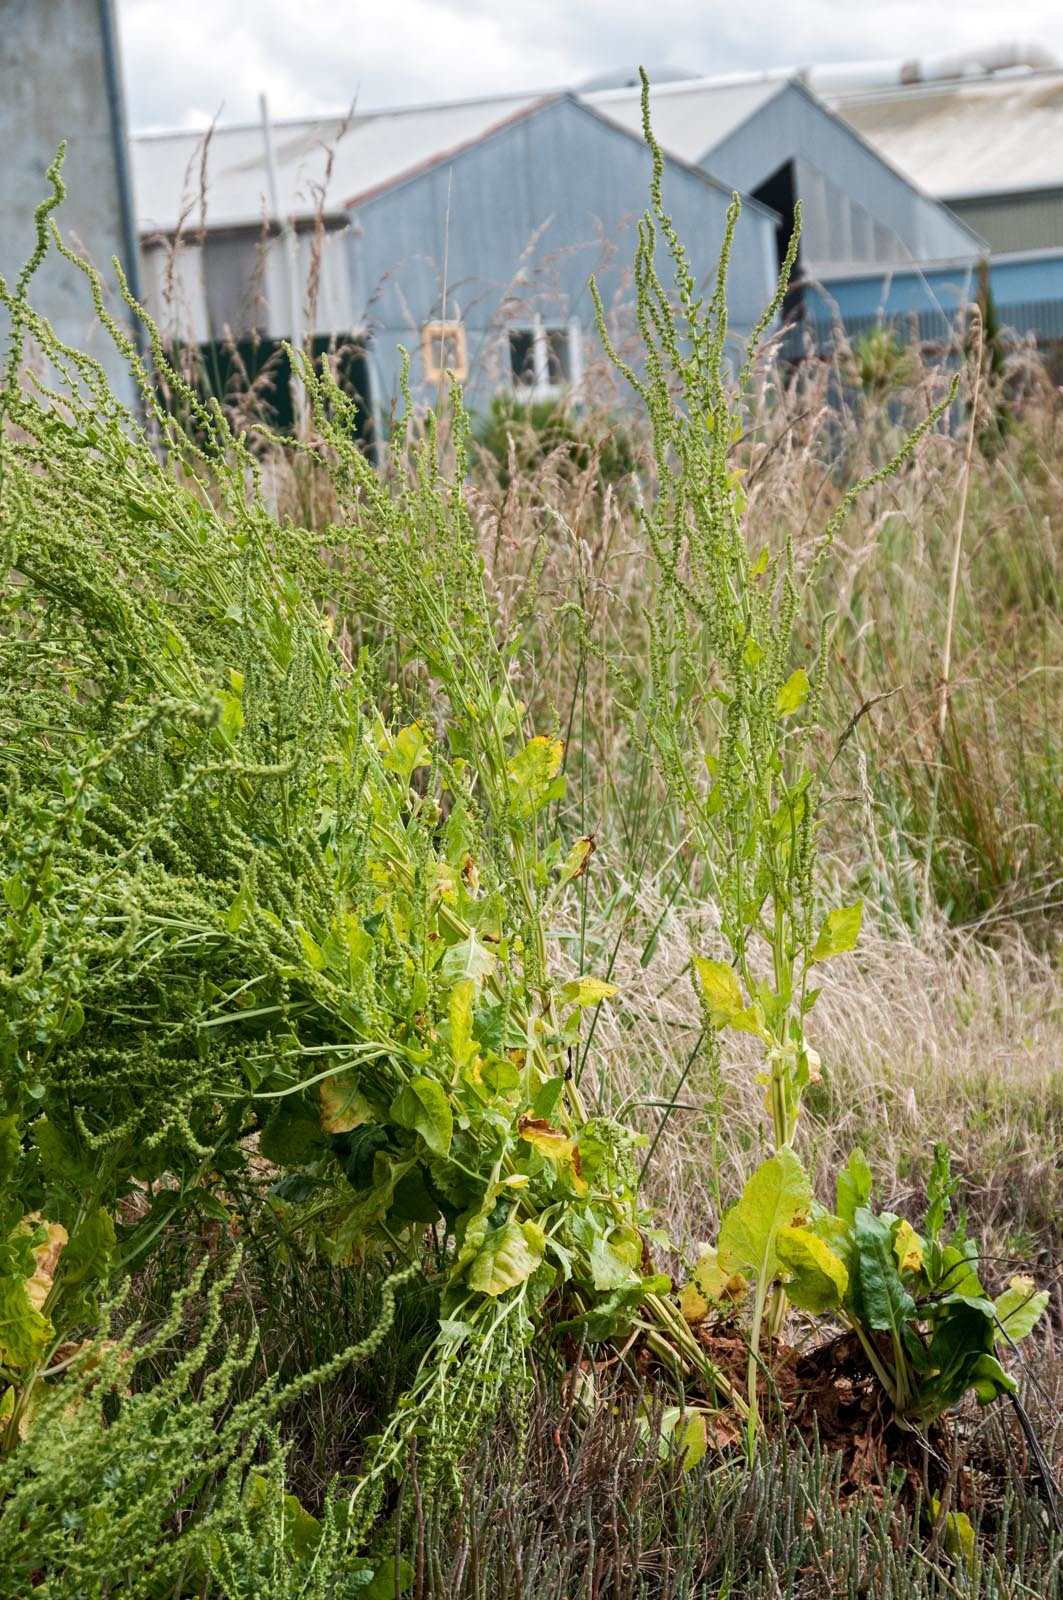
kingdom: Plantae
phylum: Tracheophyta
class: Magnoliopsida
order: Caryophyllales
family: Amaranthaceae
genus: Beta
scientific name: Beta vulgaris
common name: Beet
